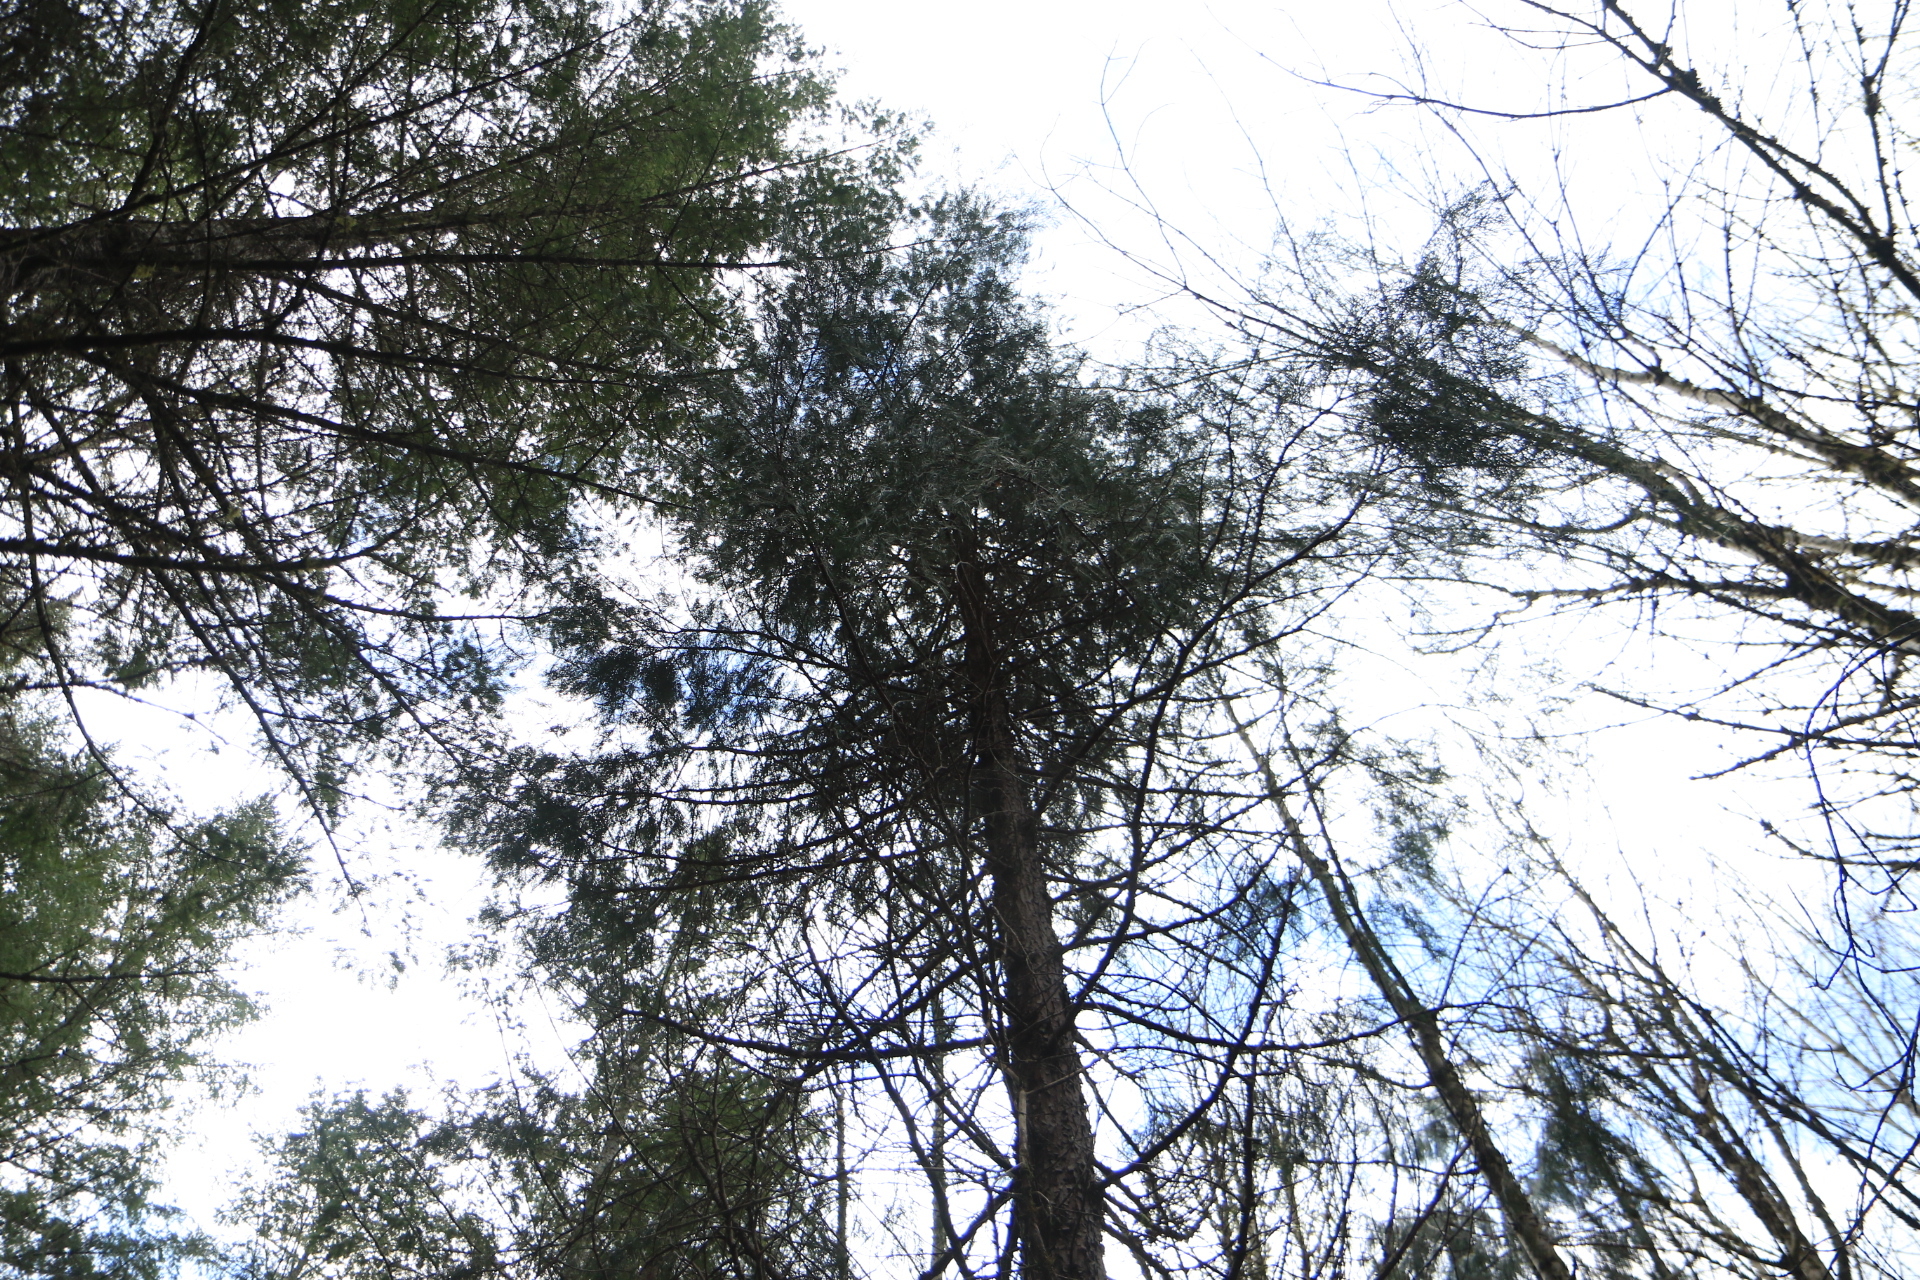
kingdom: Plantae
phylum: Tracheophyta
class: Pinopsida
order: Pinales
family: Cupressaceae
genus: Calocedrus
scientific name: Calocedrus decurrens
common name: Californian incense-cedar
